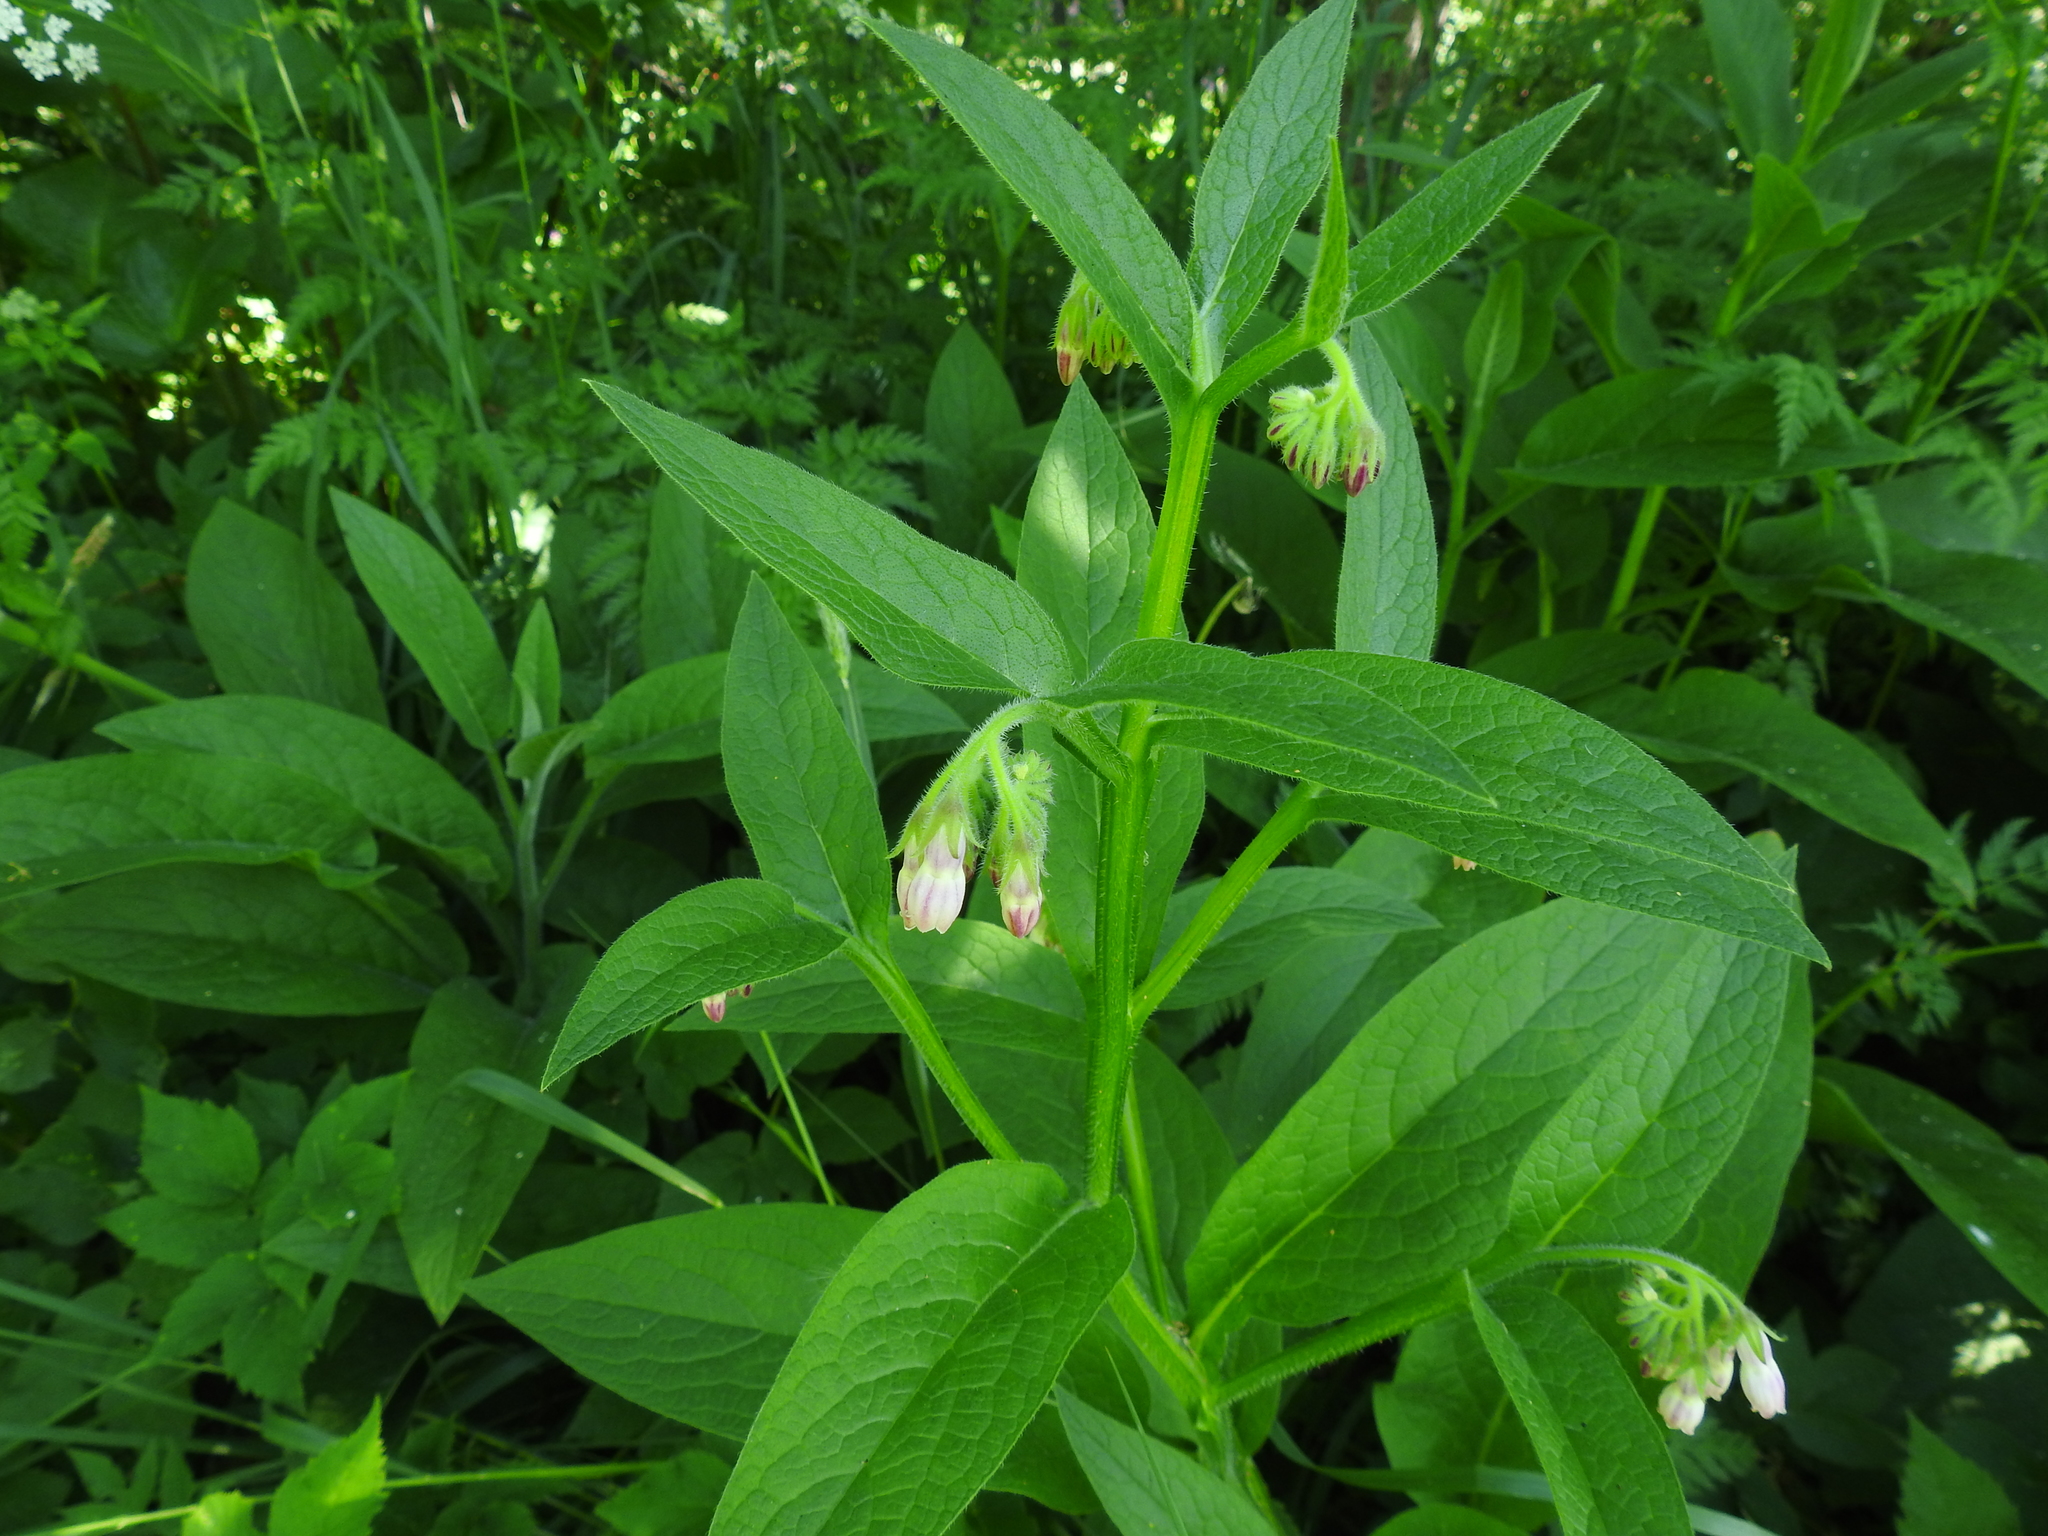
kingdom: Plantae
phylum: Tracheophyta
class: Magnoliopsida
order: Boraginales
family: Boraginaceae
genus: Symphytum
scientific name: Symphytum officinale
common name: Common comfrey
